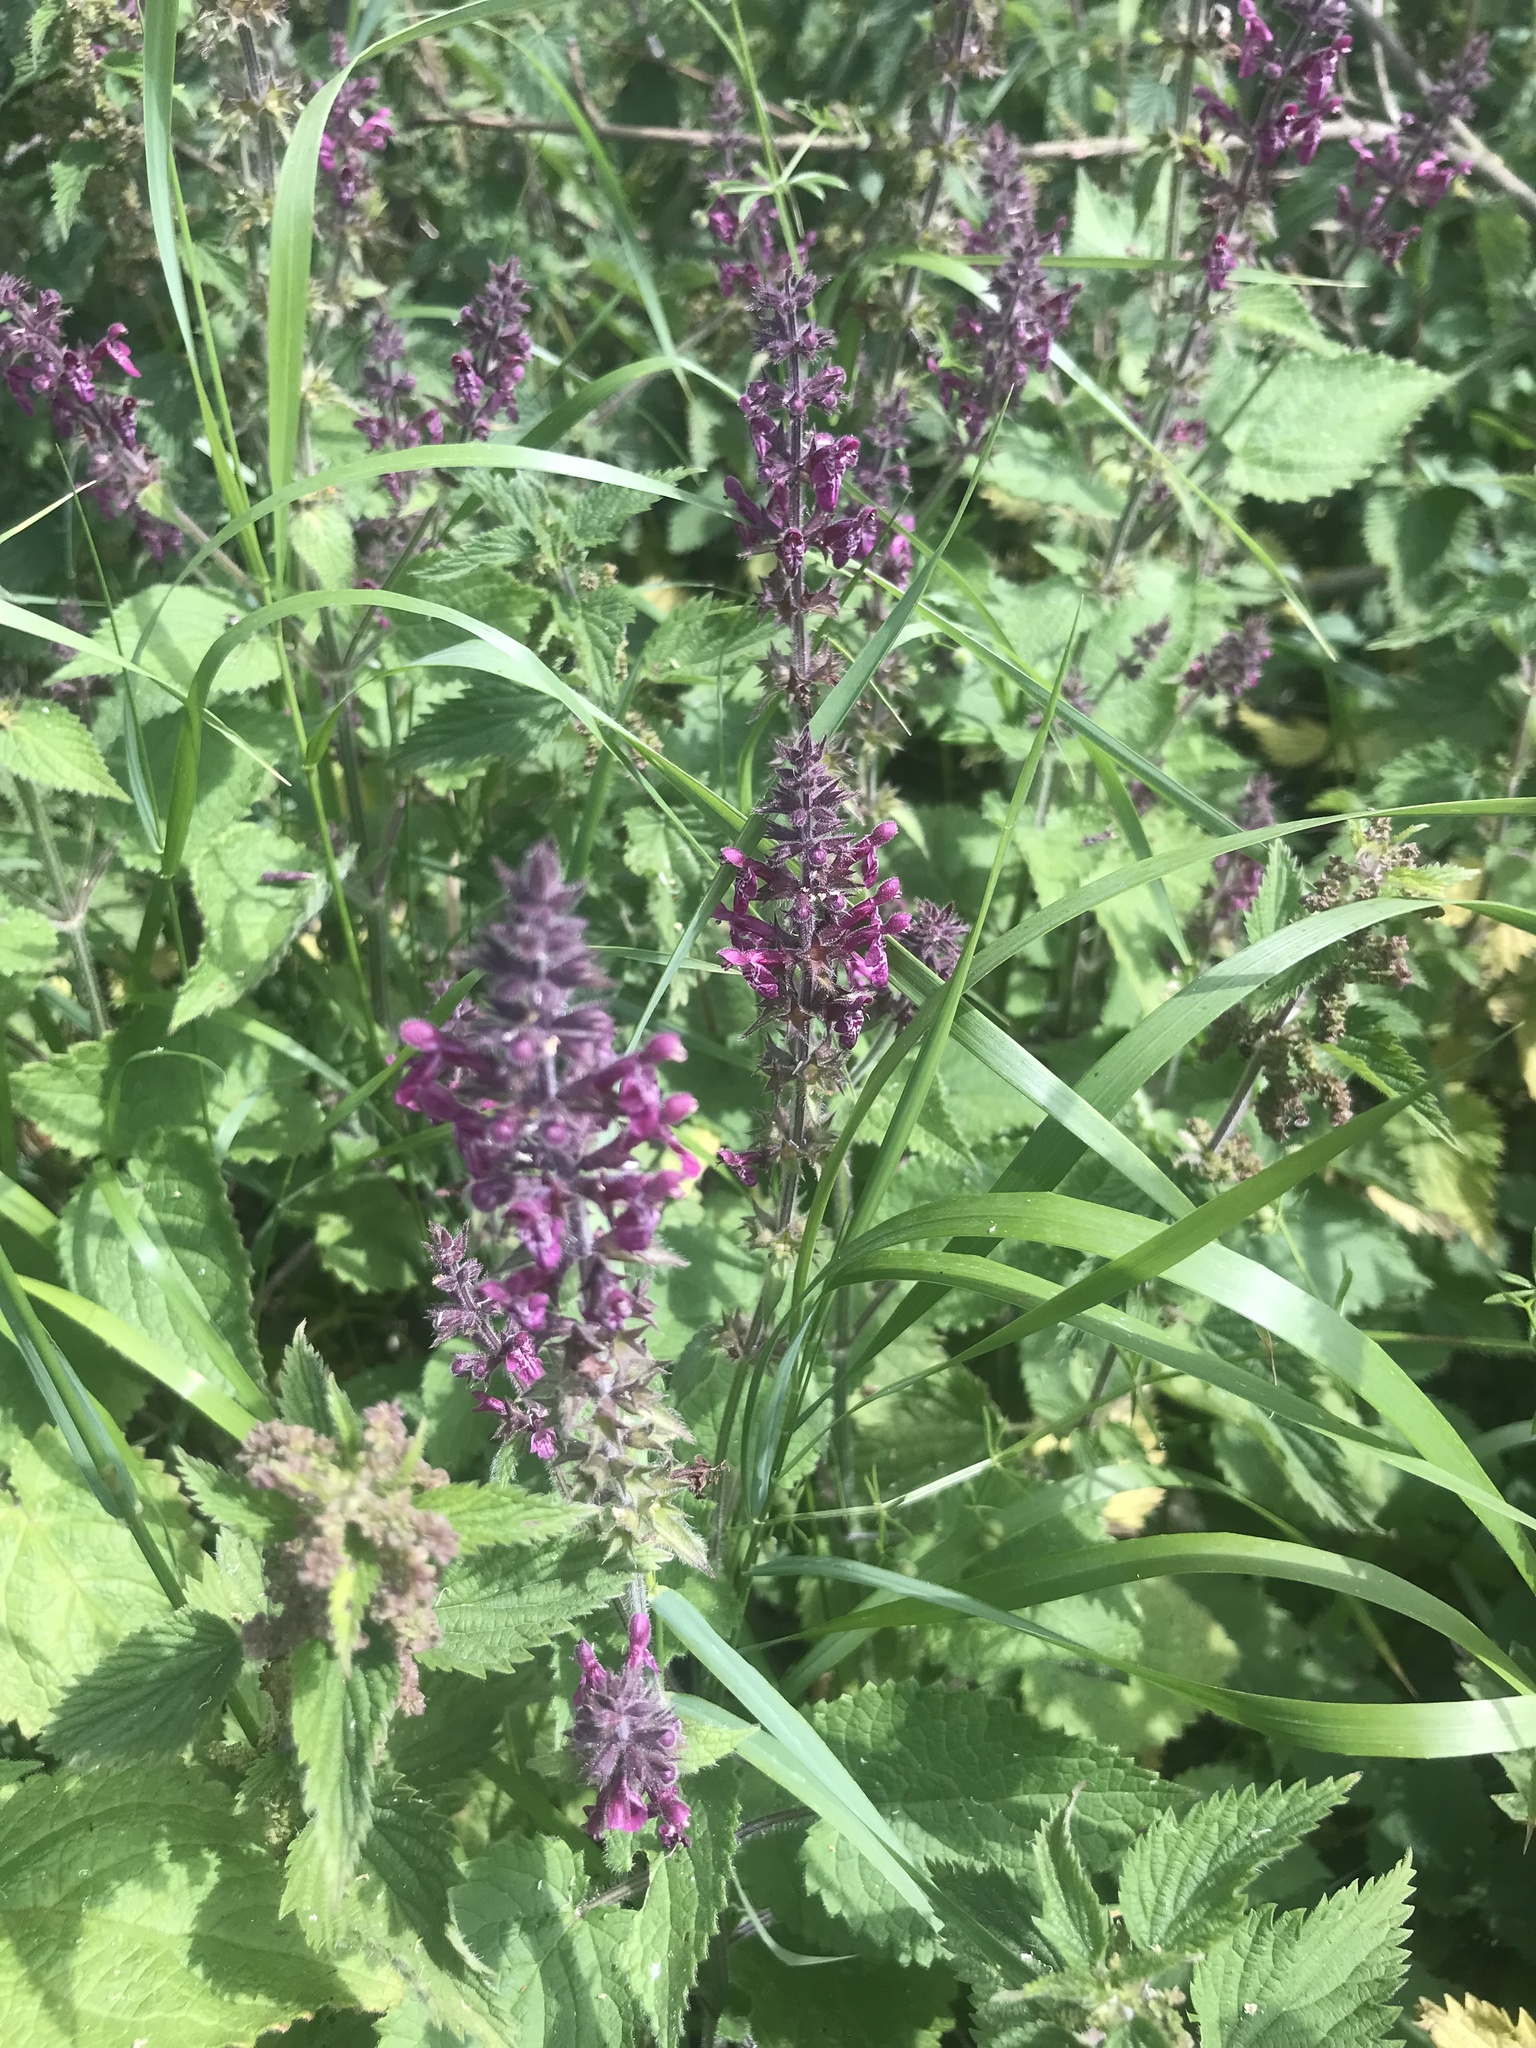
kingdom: Plantae
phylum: Tracheophyta
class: Magnoliopsida
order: Lamiales
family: Lamiaceae
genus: Stachys
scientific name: Stachys sylvatica
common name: Hedge woundwort
